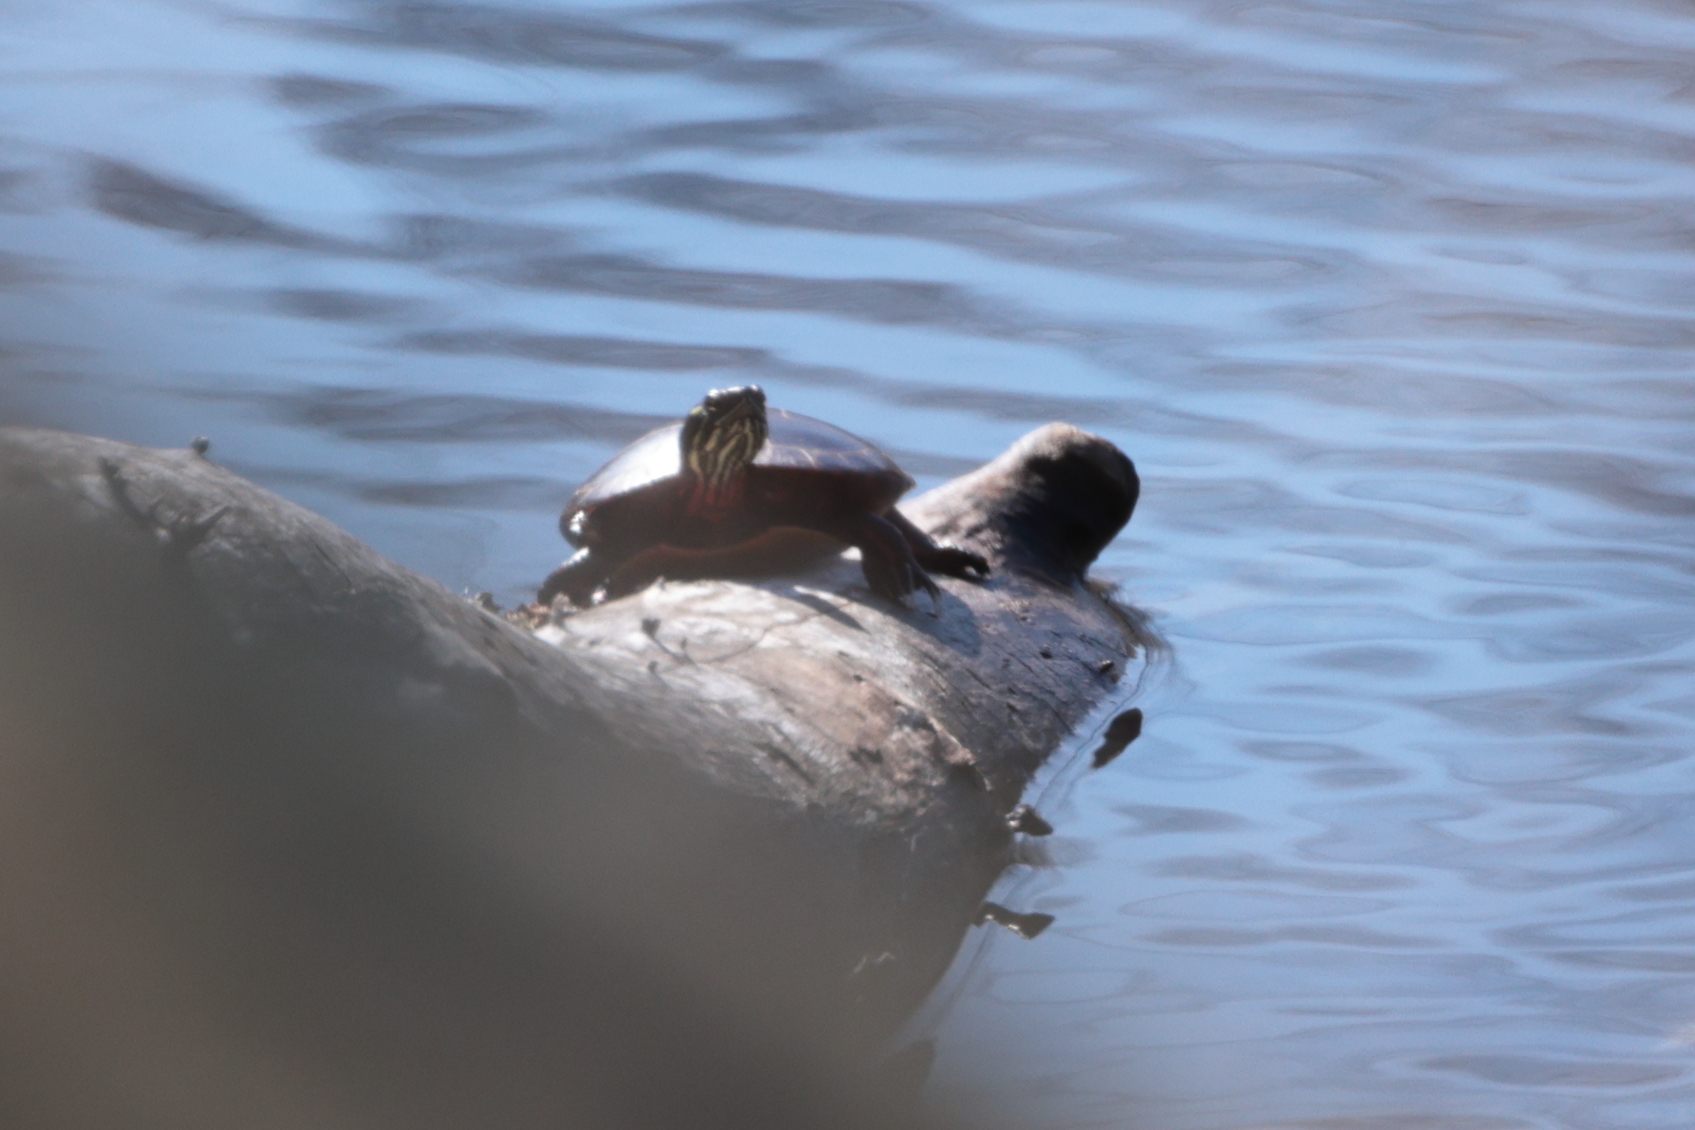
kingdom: Animalia
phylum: Chordata
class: Testudines
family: Emydidae
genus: Chrysemys
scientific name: Chrysemys picta
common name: Painted turtle
